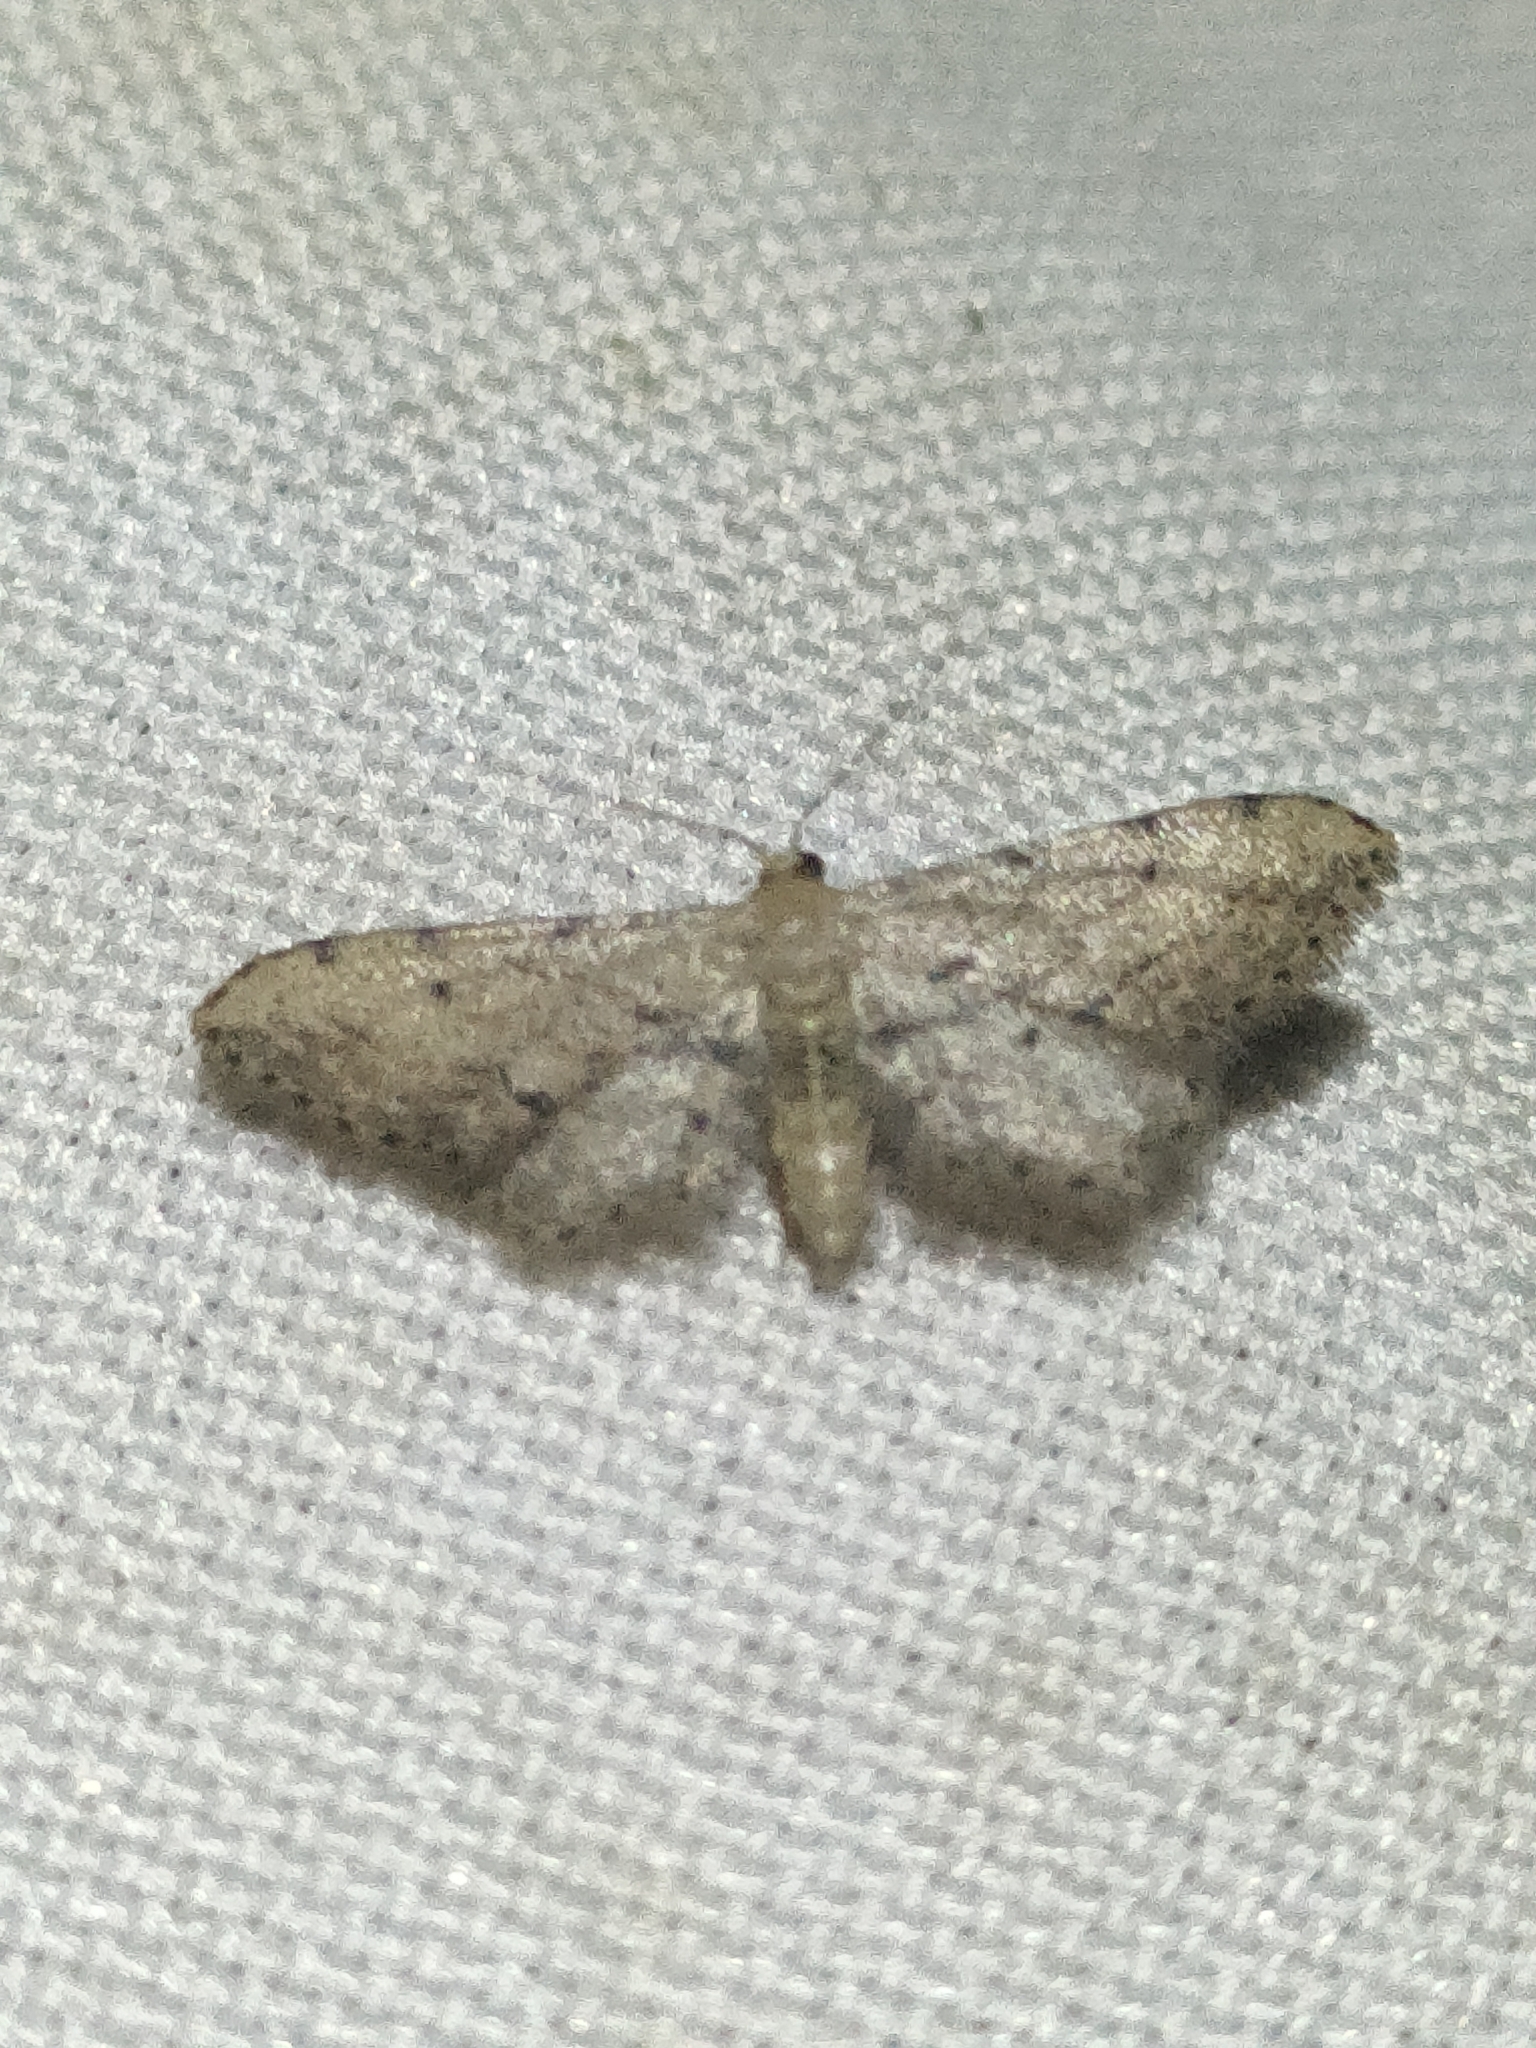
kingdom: Animalia
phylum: Arthropoda
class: Insecta
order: Lepidoptera
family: Geometridae
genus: Idaea
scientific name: Idaea attenuaria
